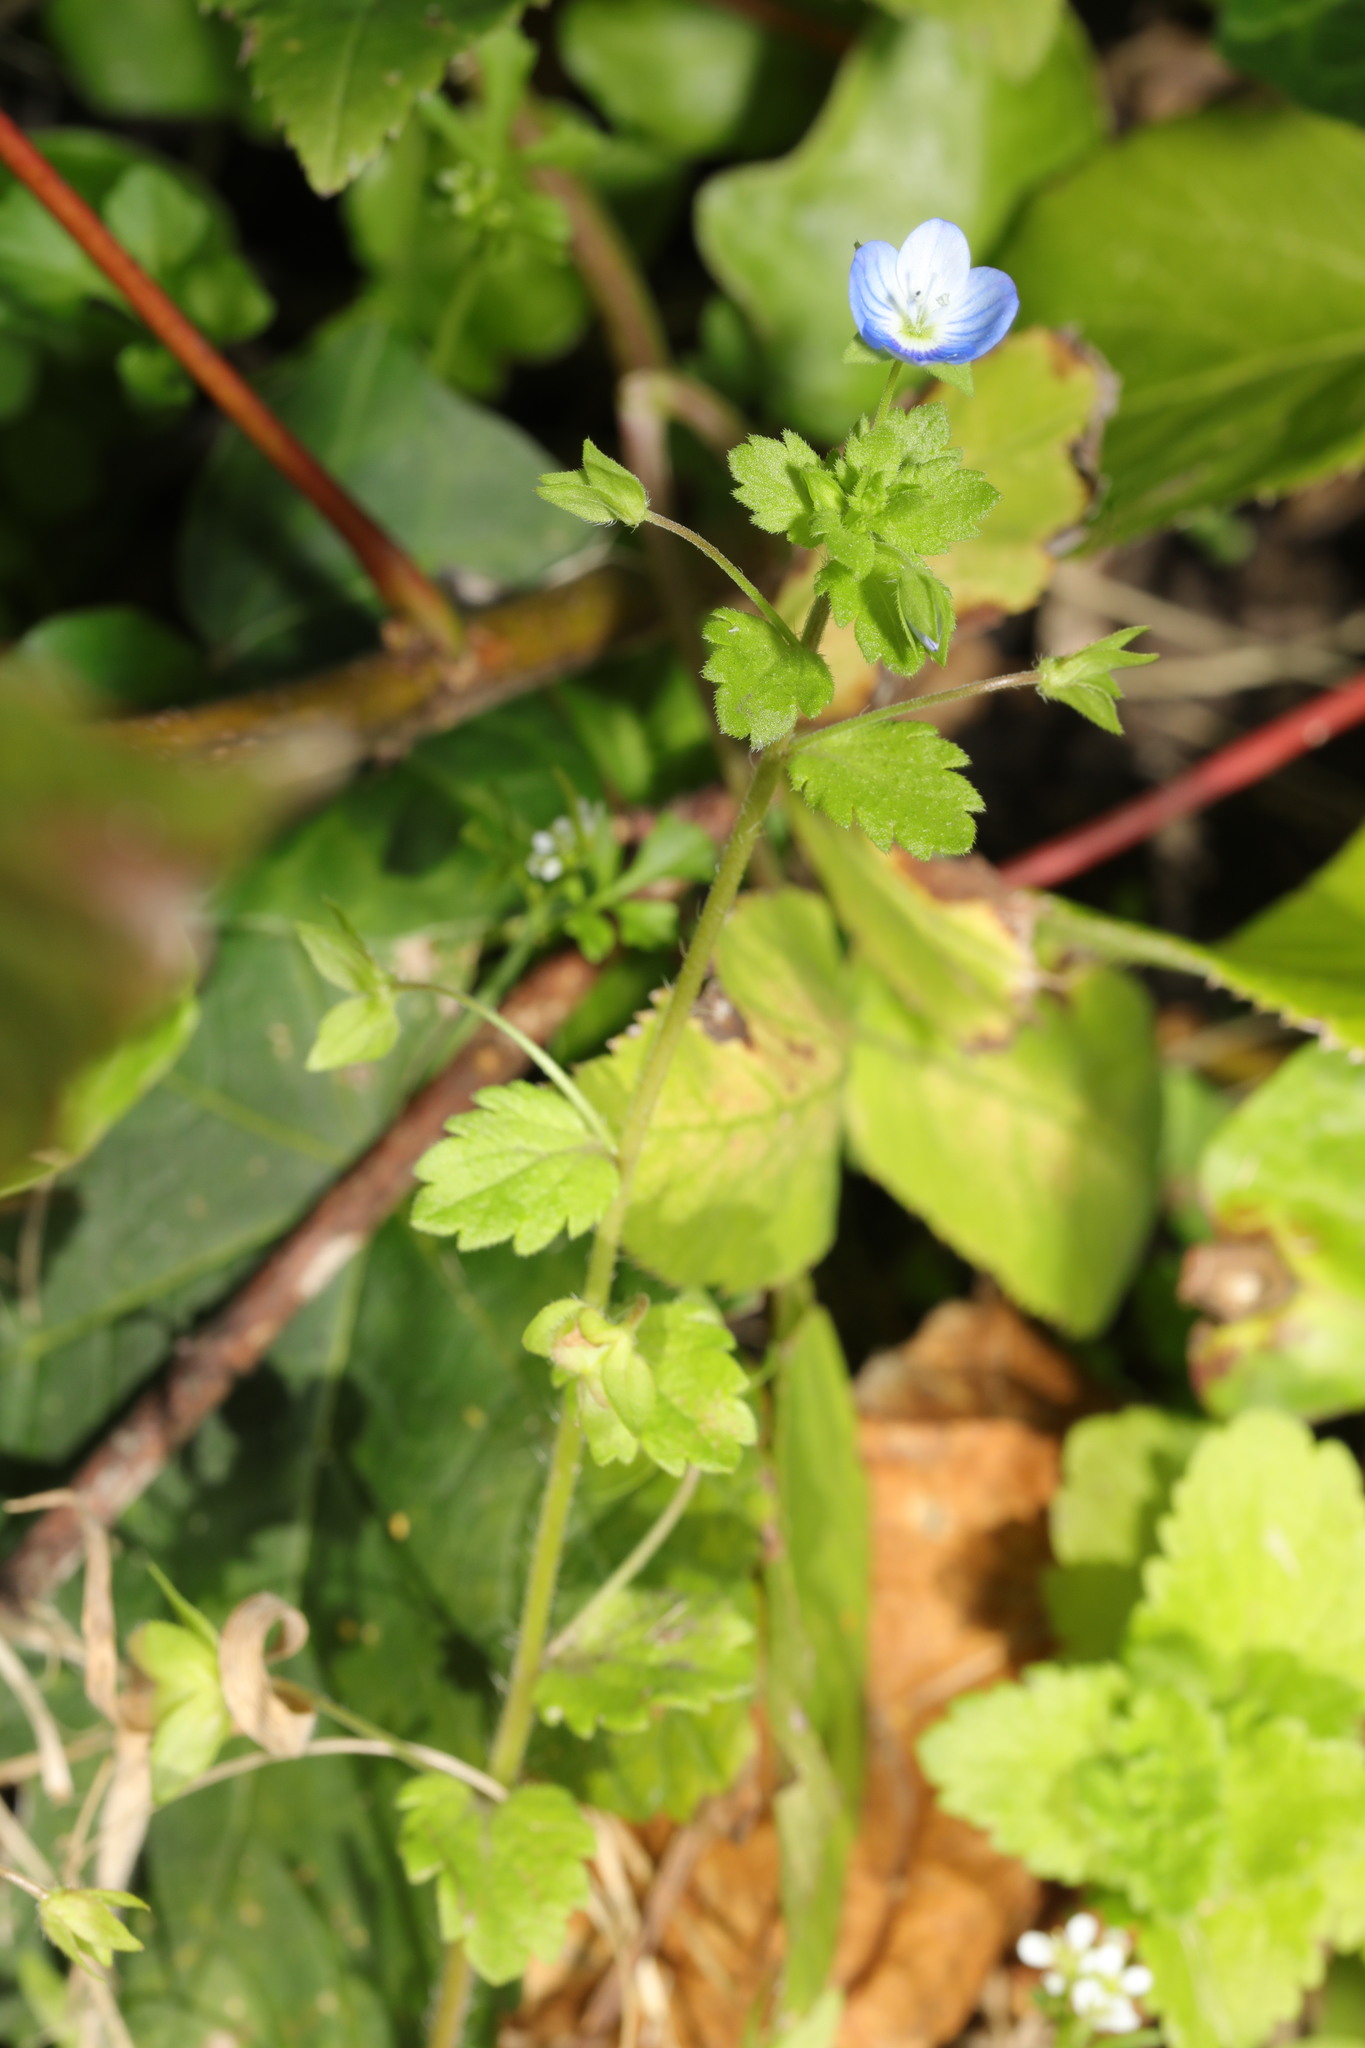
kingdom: Plantae
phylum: Tracheophyta
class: Magnoliopsida
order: Lamiales
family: Plantaginaceae
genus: Veronica
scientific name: Veronica persica
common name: Common field-speedwell
